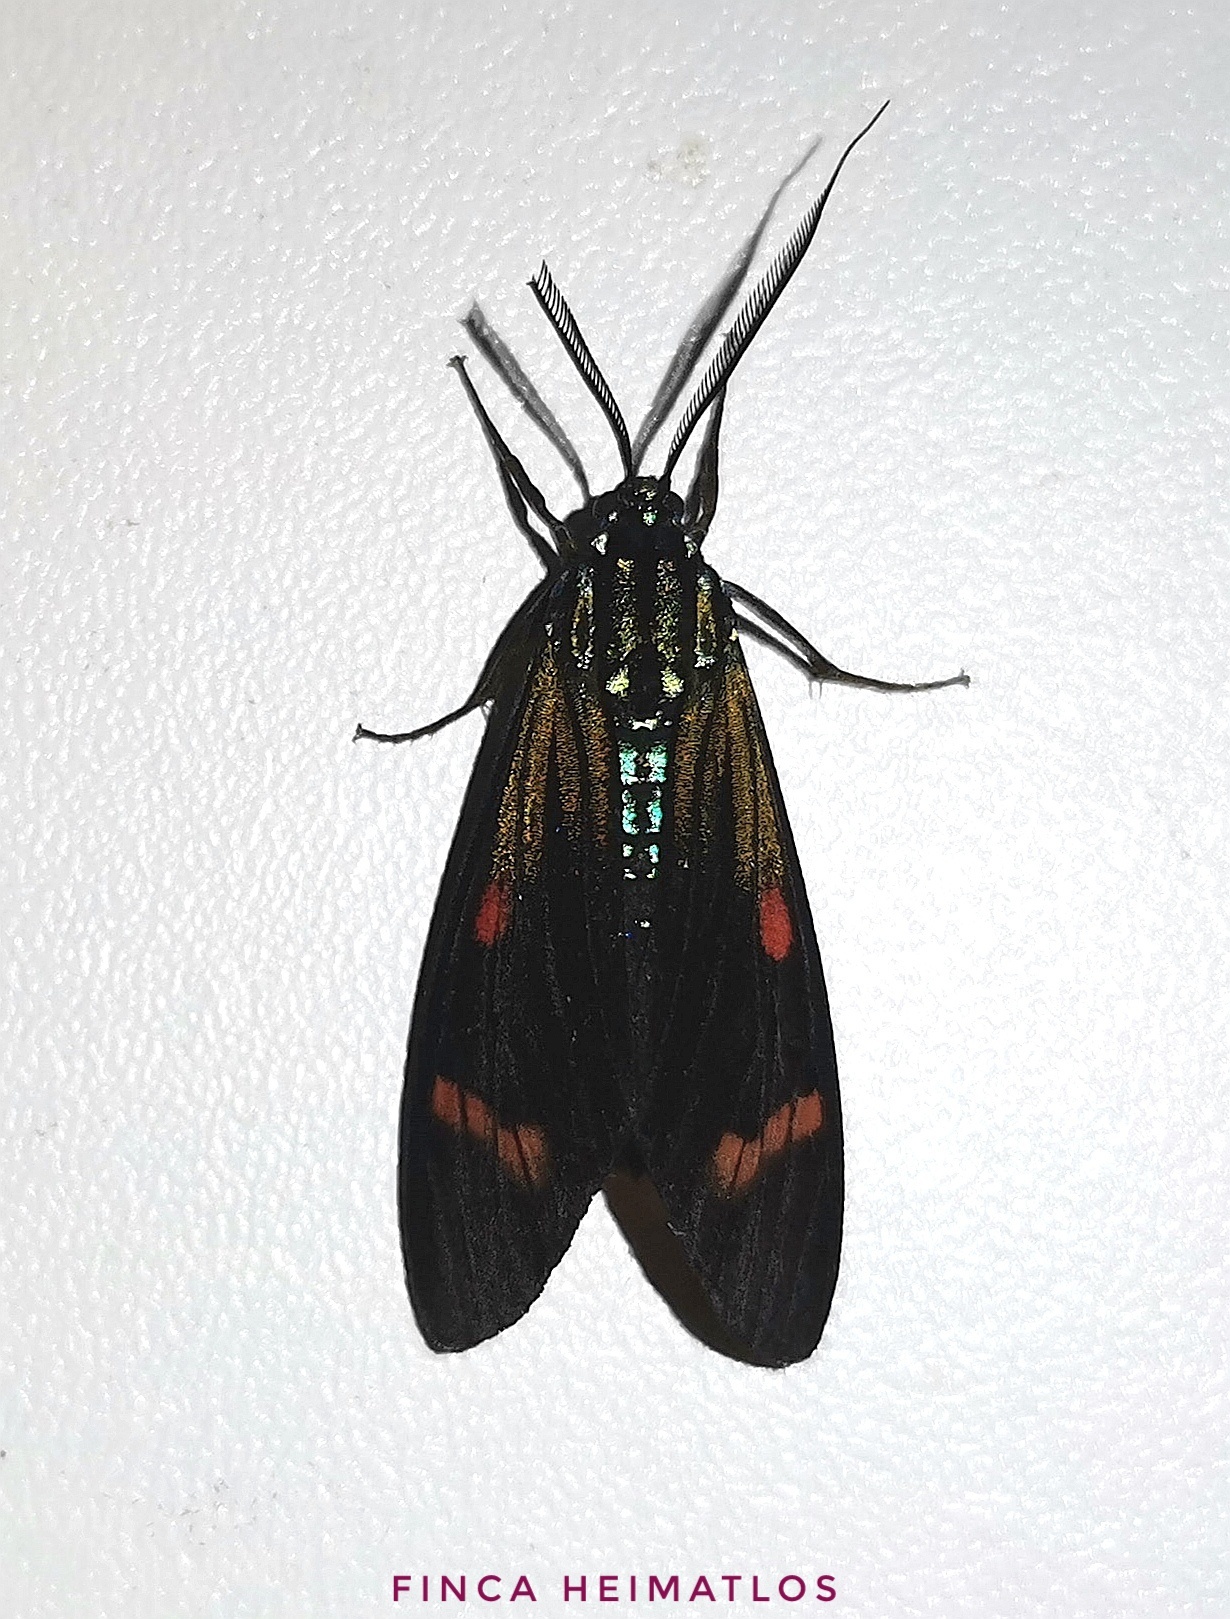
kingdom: Animalia
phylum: Arthropoda
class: Insecta
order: Lepidoptera
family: Erebidae
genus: Diospage
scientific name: Diospage splendens
